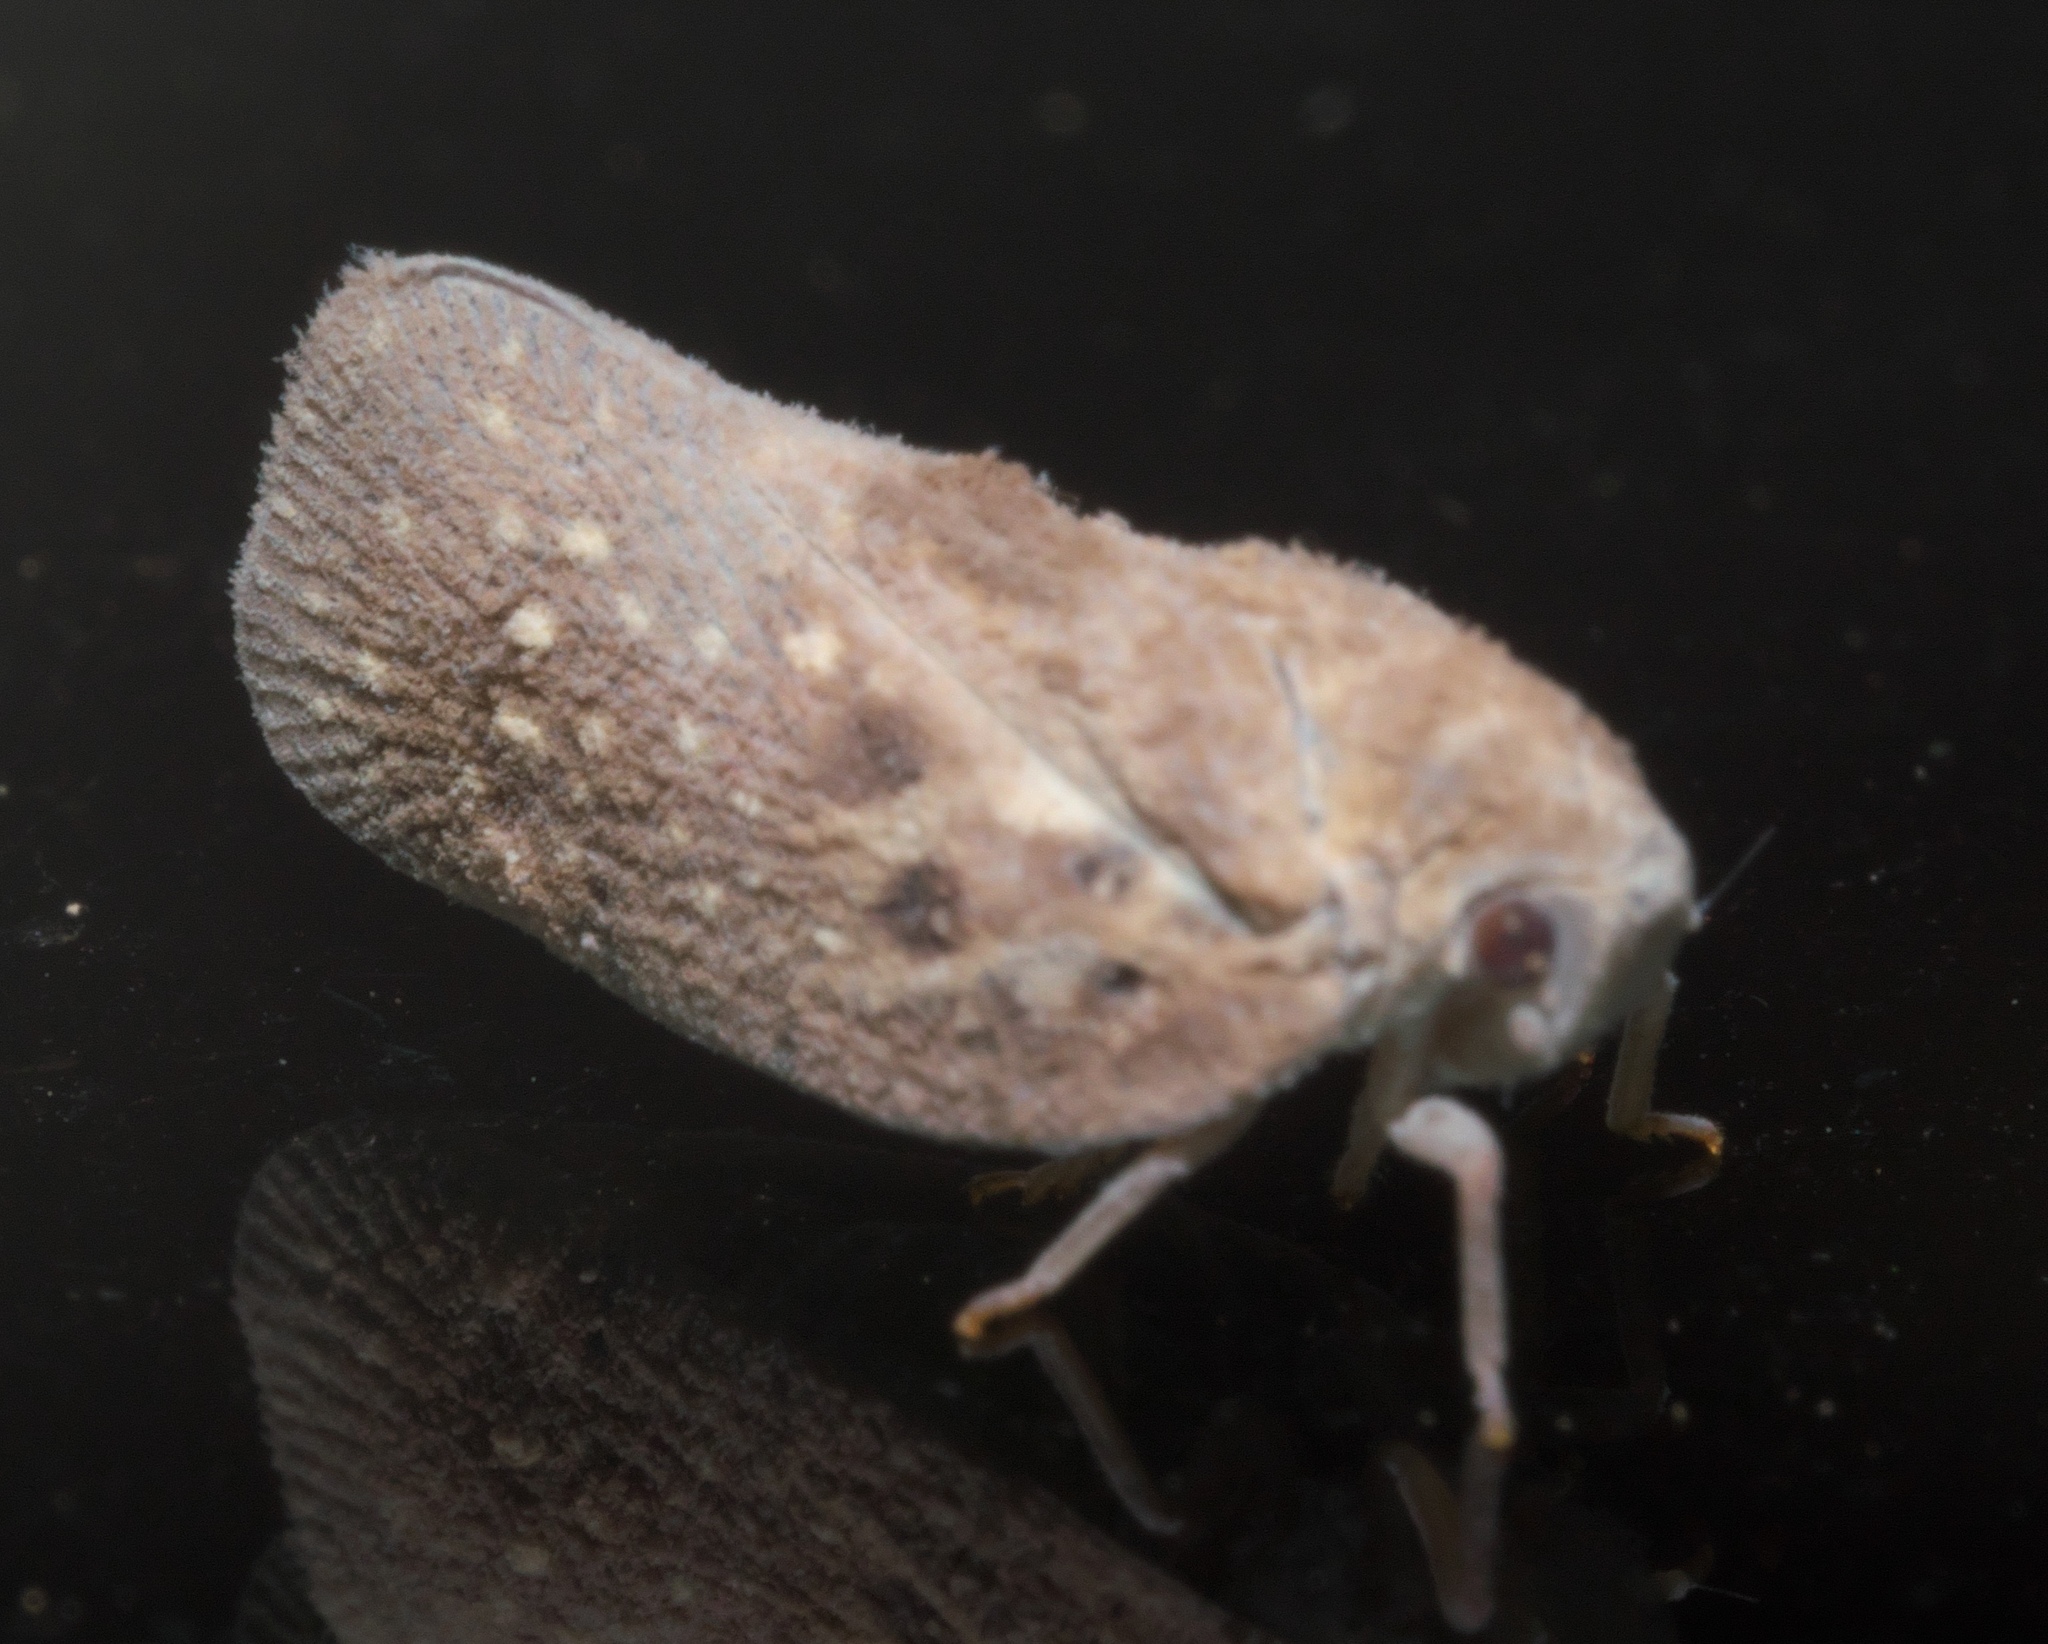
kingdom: Animalia
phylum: Arthropoda
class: Insecta
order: Hemiptera
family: Flatidae
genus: Metcalfa
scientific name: Metcalfa pruinosa
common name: Citrus flatid planthopper
